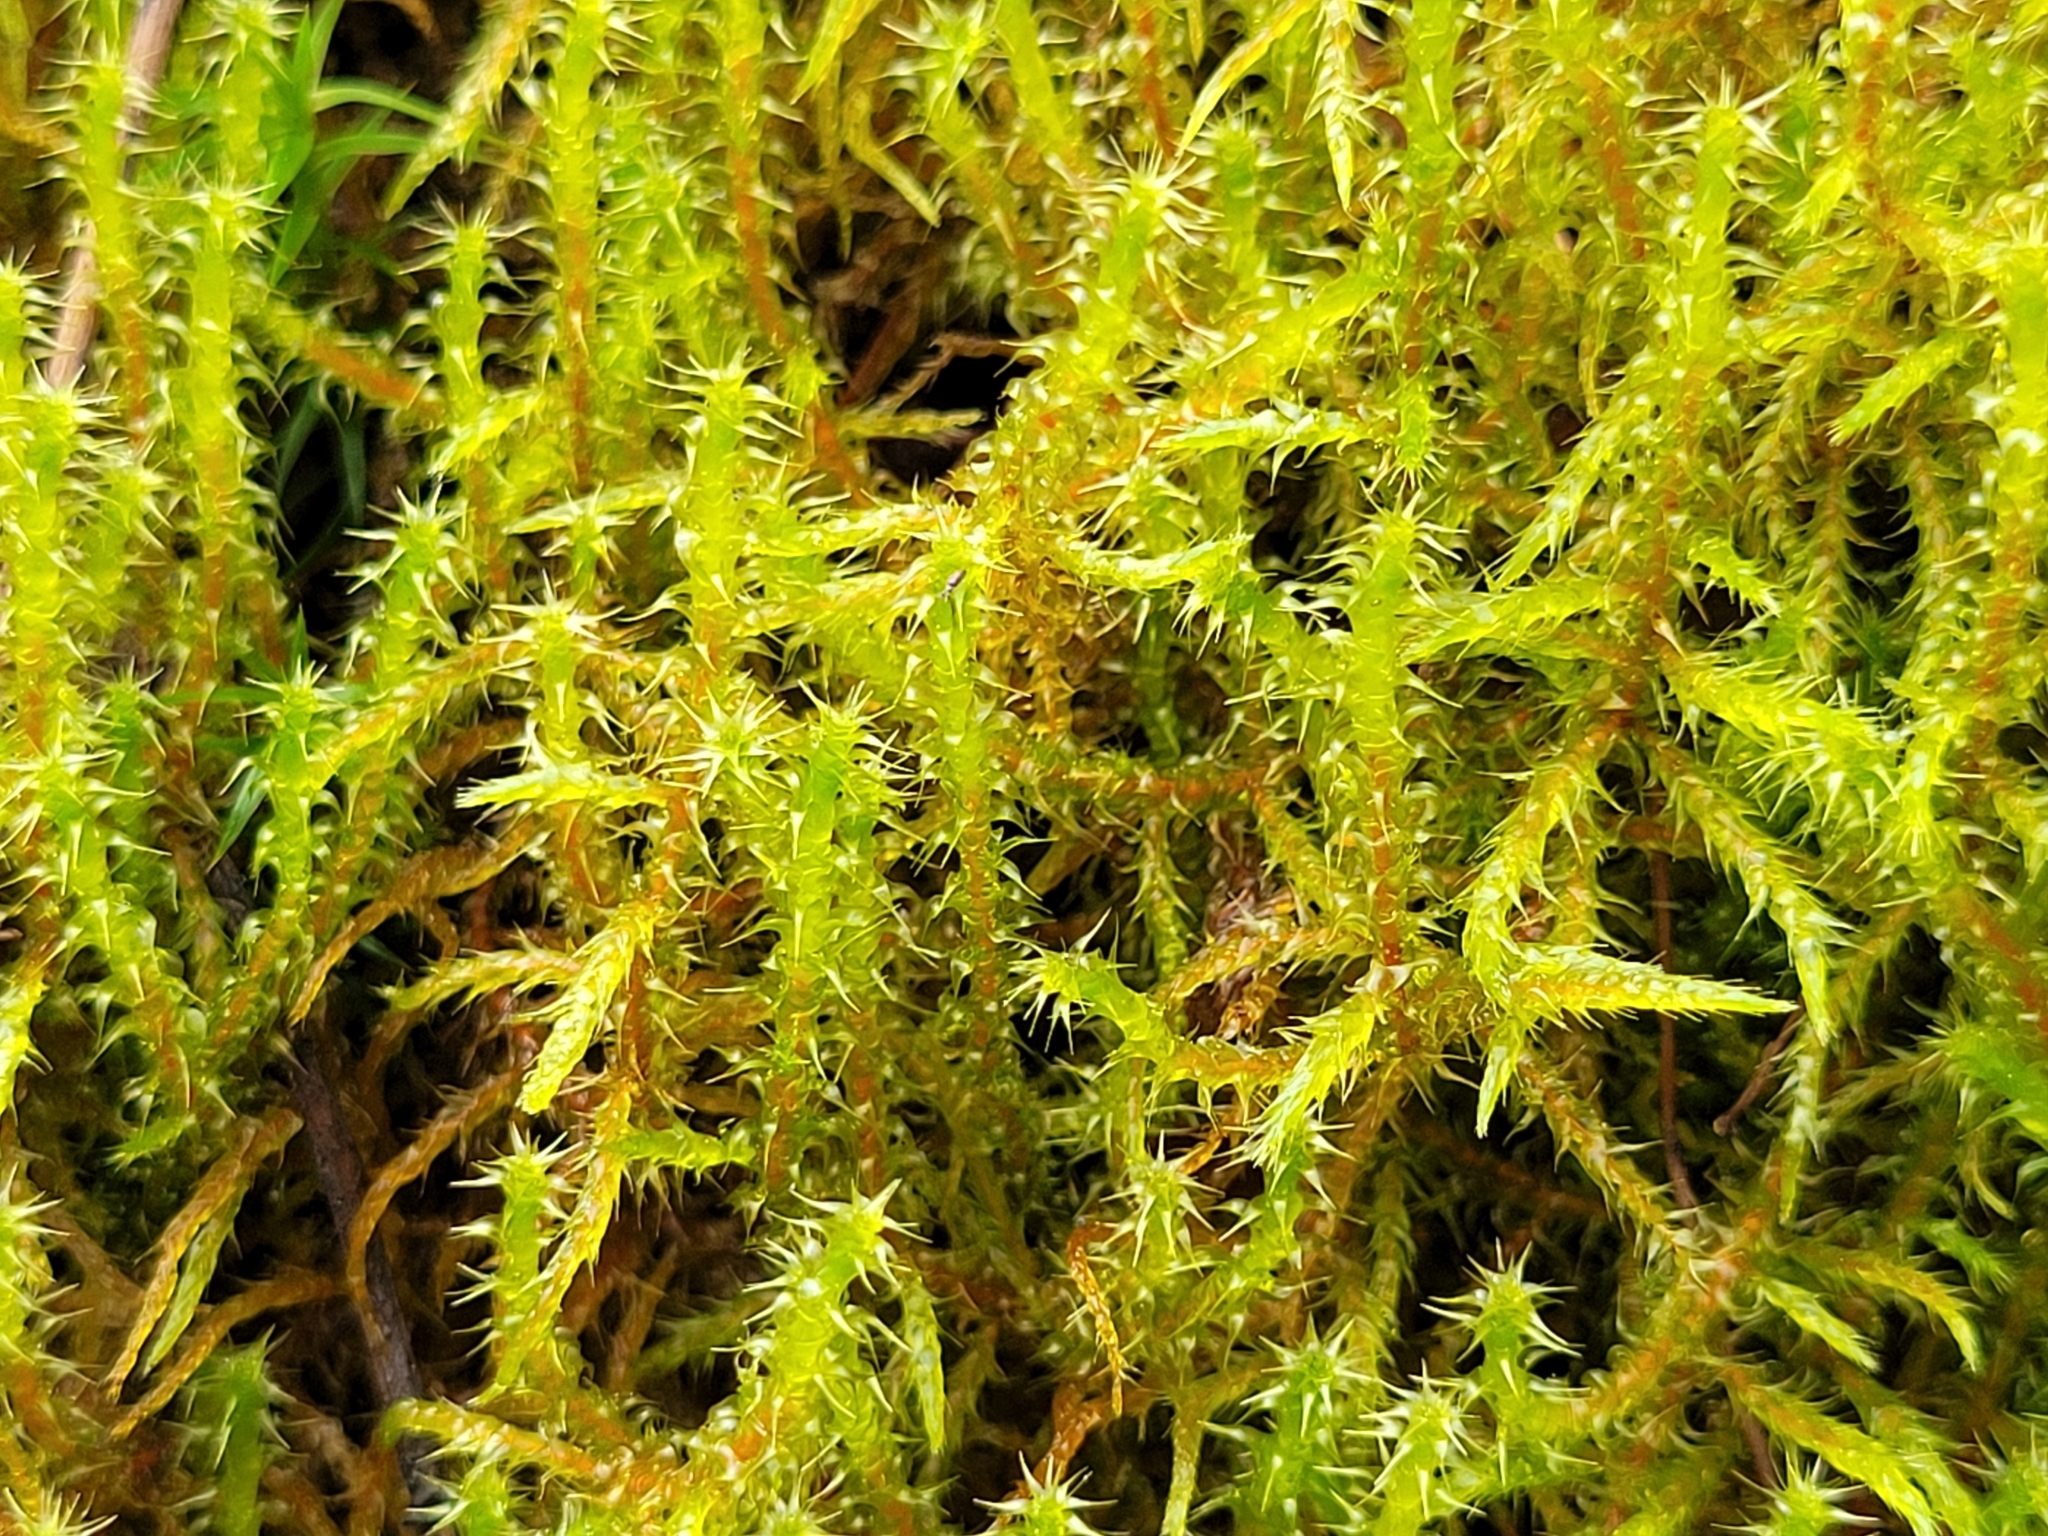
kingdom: Plantae
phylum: Bryophyta
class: Bryopsida
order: Hypnales
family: Hylocomiaceae
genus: Rhytidiadelphus
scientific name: Rhytidiadelphus squarrosus
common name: Springy turf-moss
